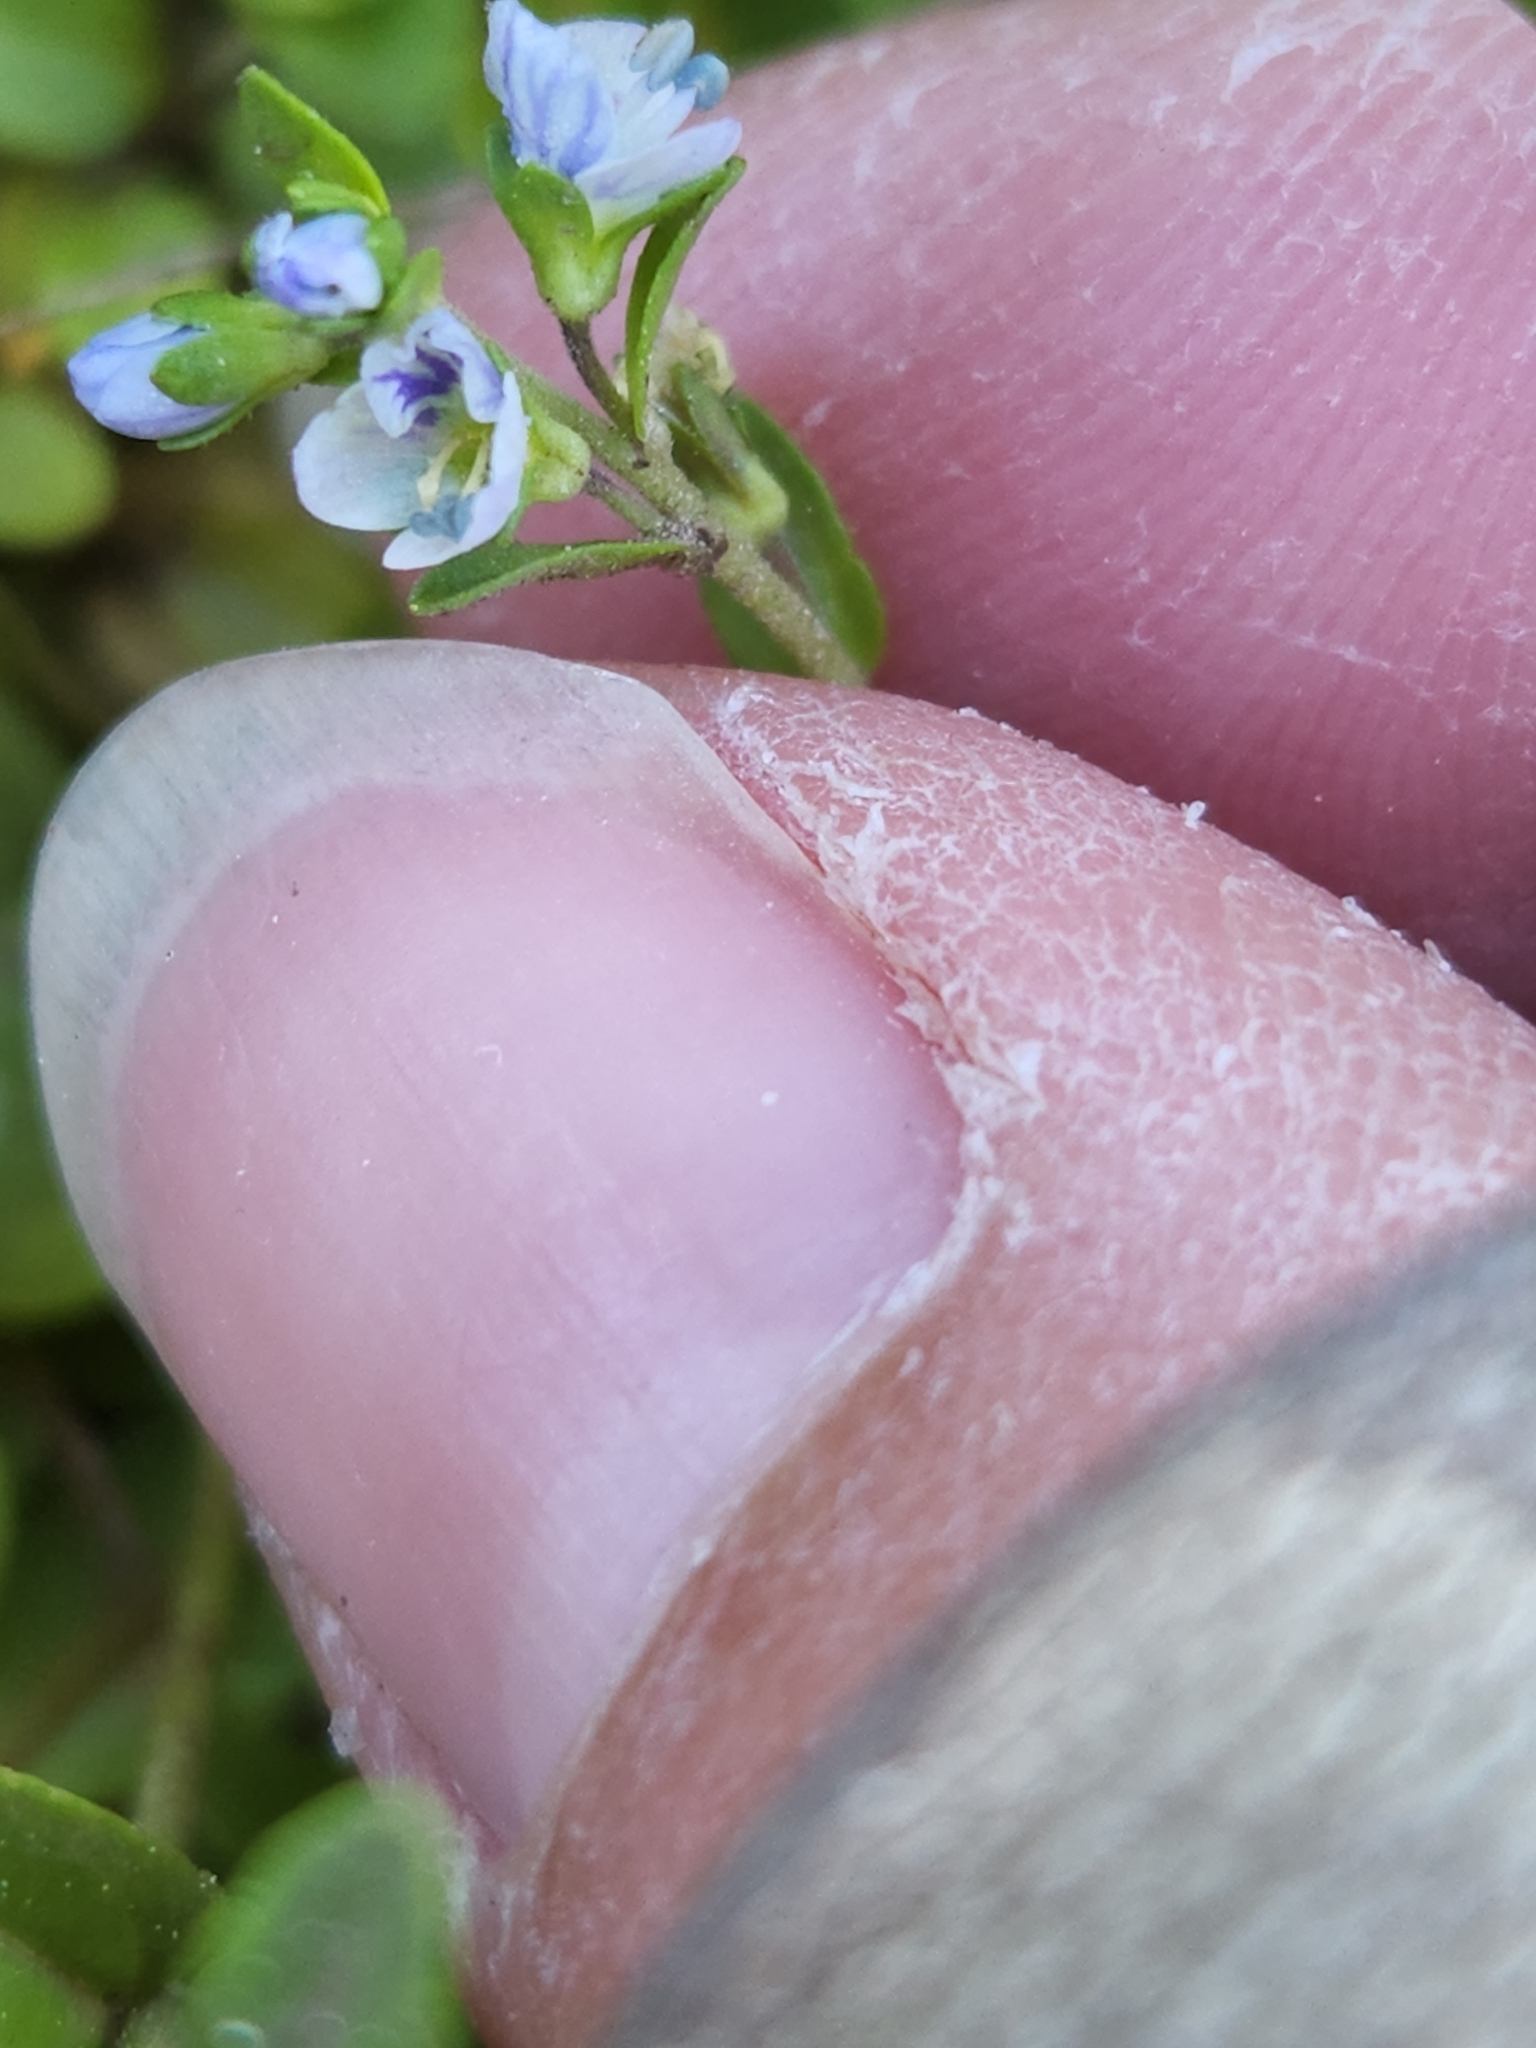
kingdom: Plantae
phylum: Tracheophyta
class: Magnoliopsida
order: Lamiales
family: Plantaginaceae
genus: Veronica
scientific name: Veronica serpyllifolia
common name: Thyme-leaved speedwell
